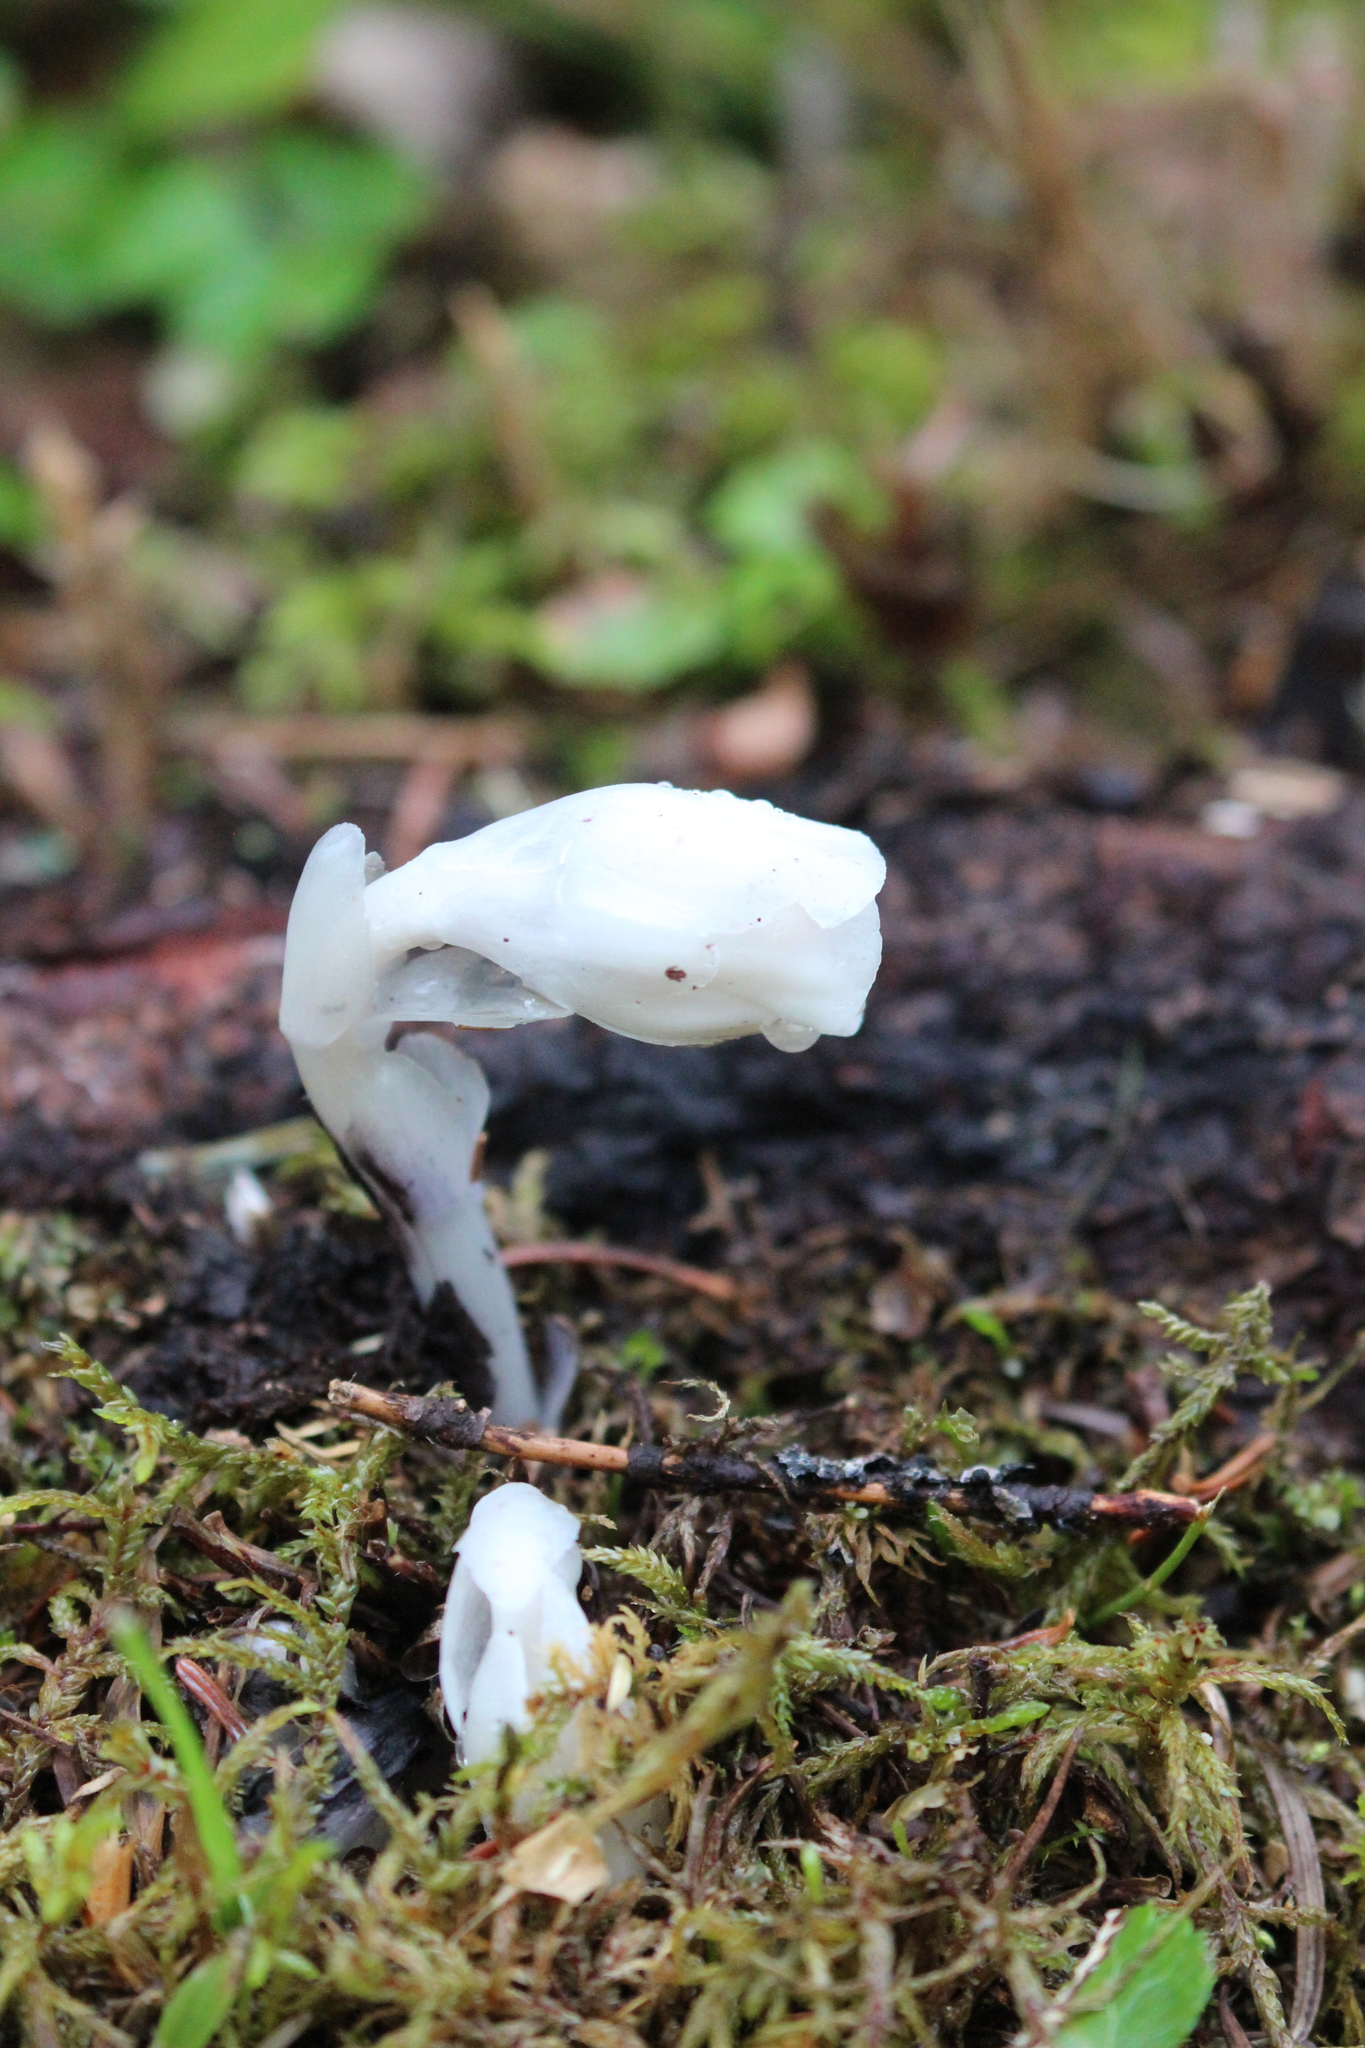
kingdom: Plantae
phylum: Tracheophyta
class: Magnoliopsida
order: Ericales
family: Ericaceae
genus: Monotropa
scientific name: Monotropa uniflora
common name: Convulsion root
